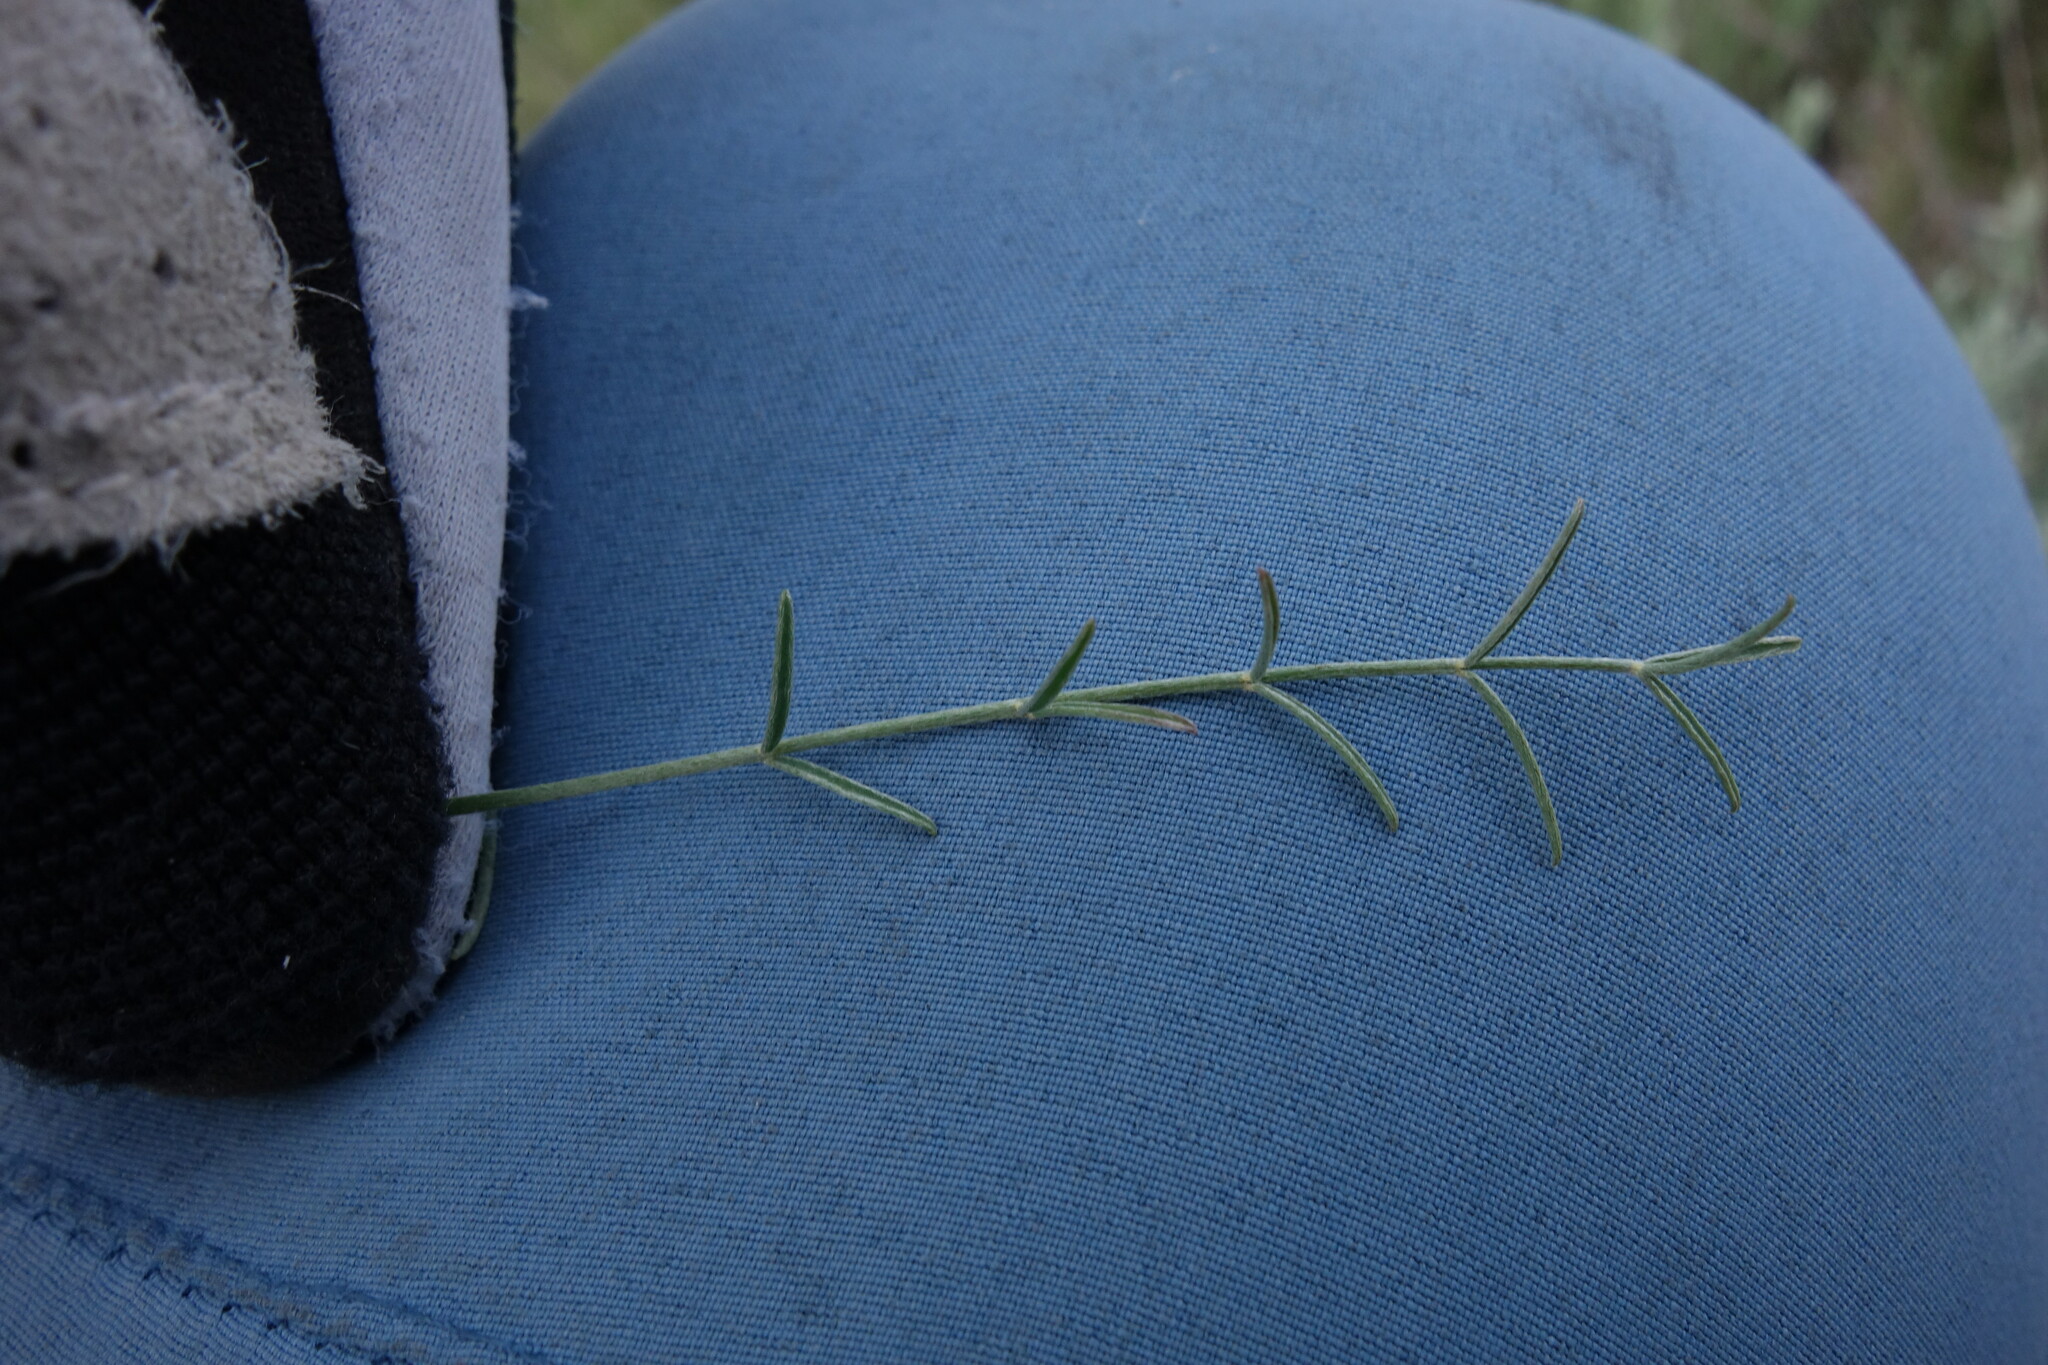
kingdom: Plantae
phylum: Tracheophyta
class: Magnoliopsida
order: Fabales
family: Fabaceae
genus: Astragalus
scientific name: Astragalus ucrainicus
